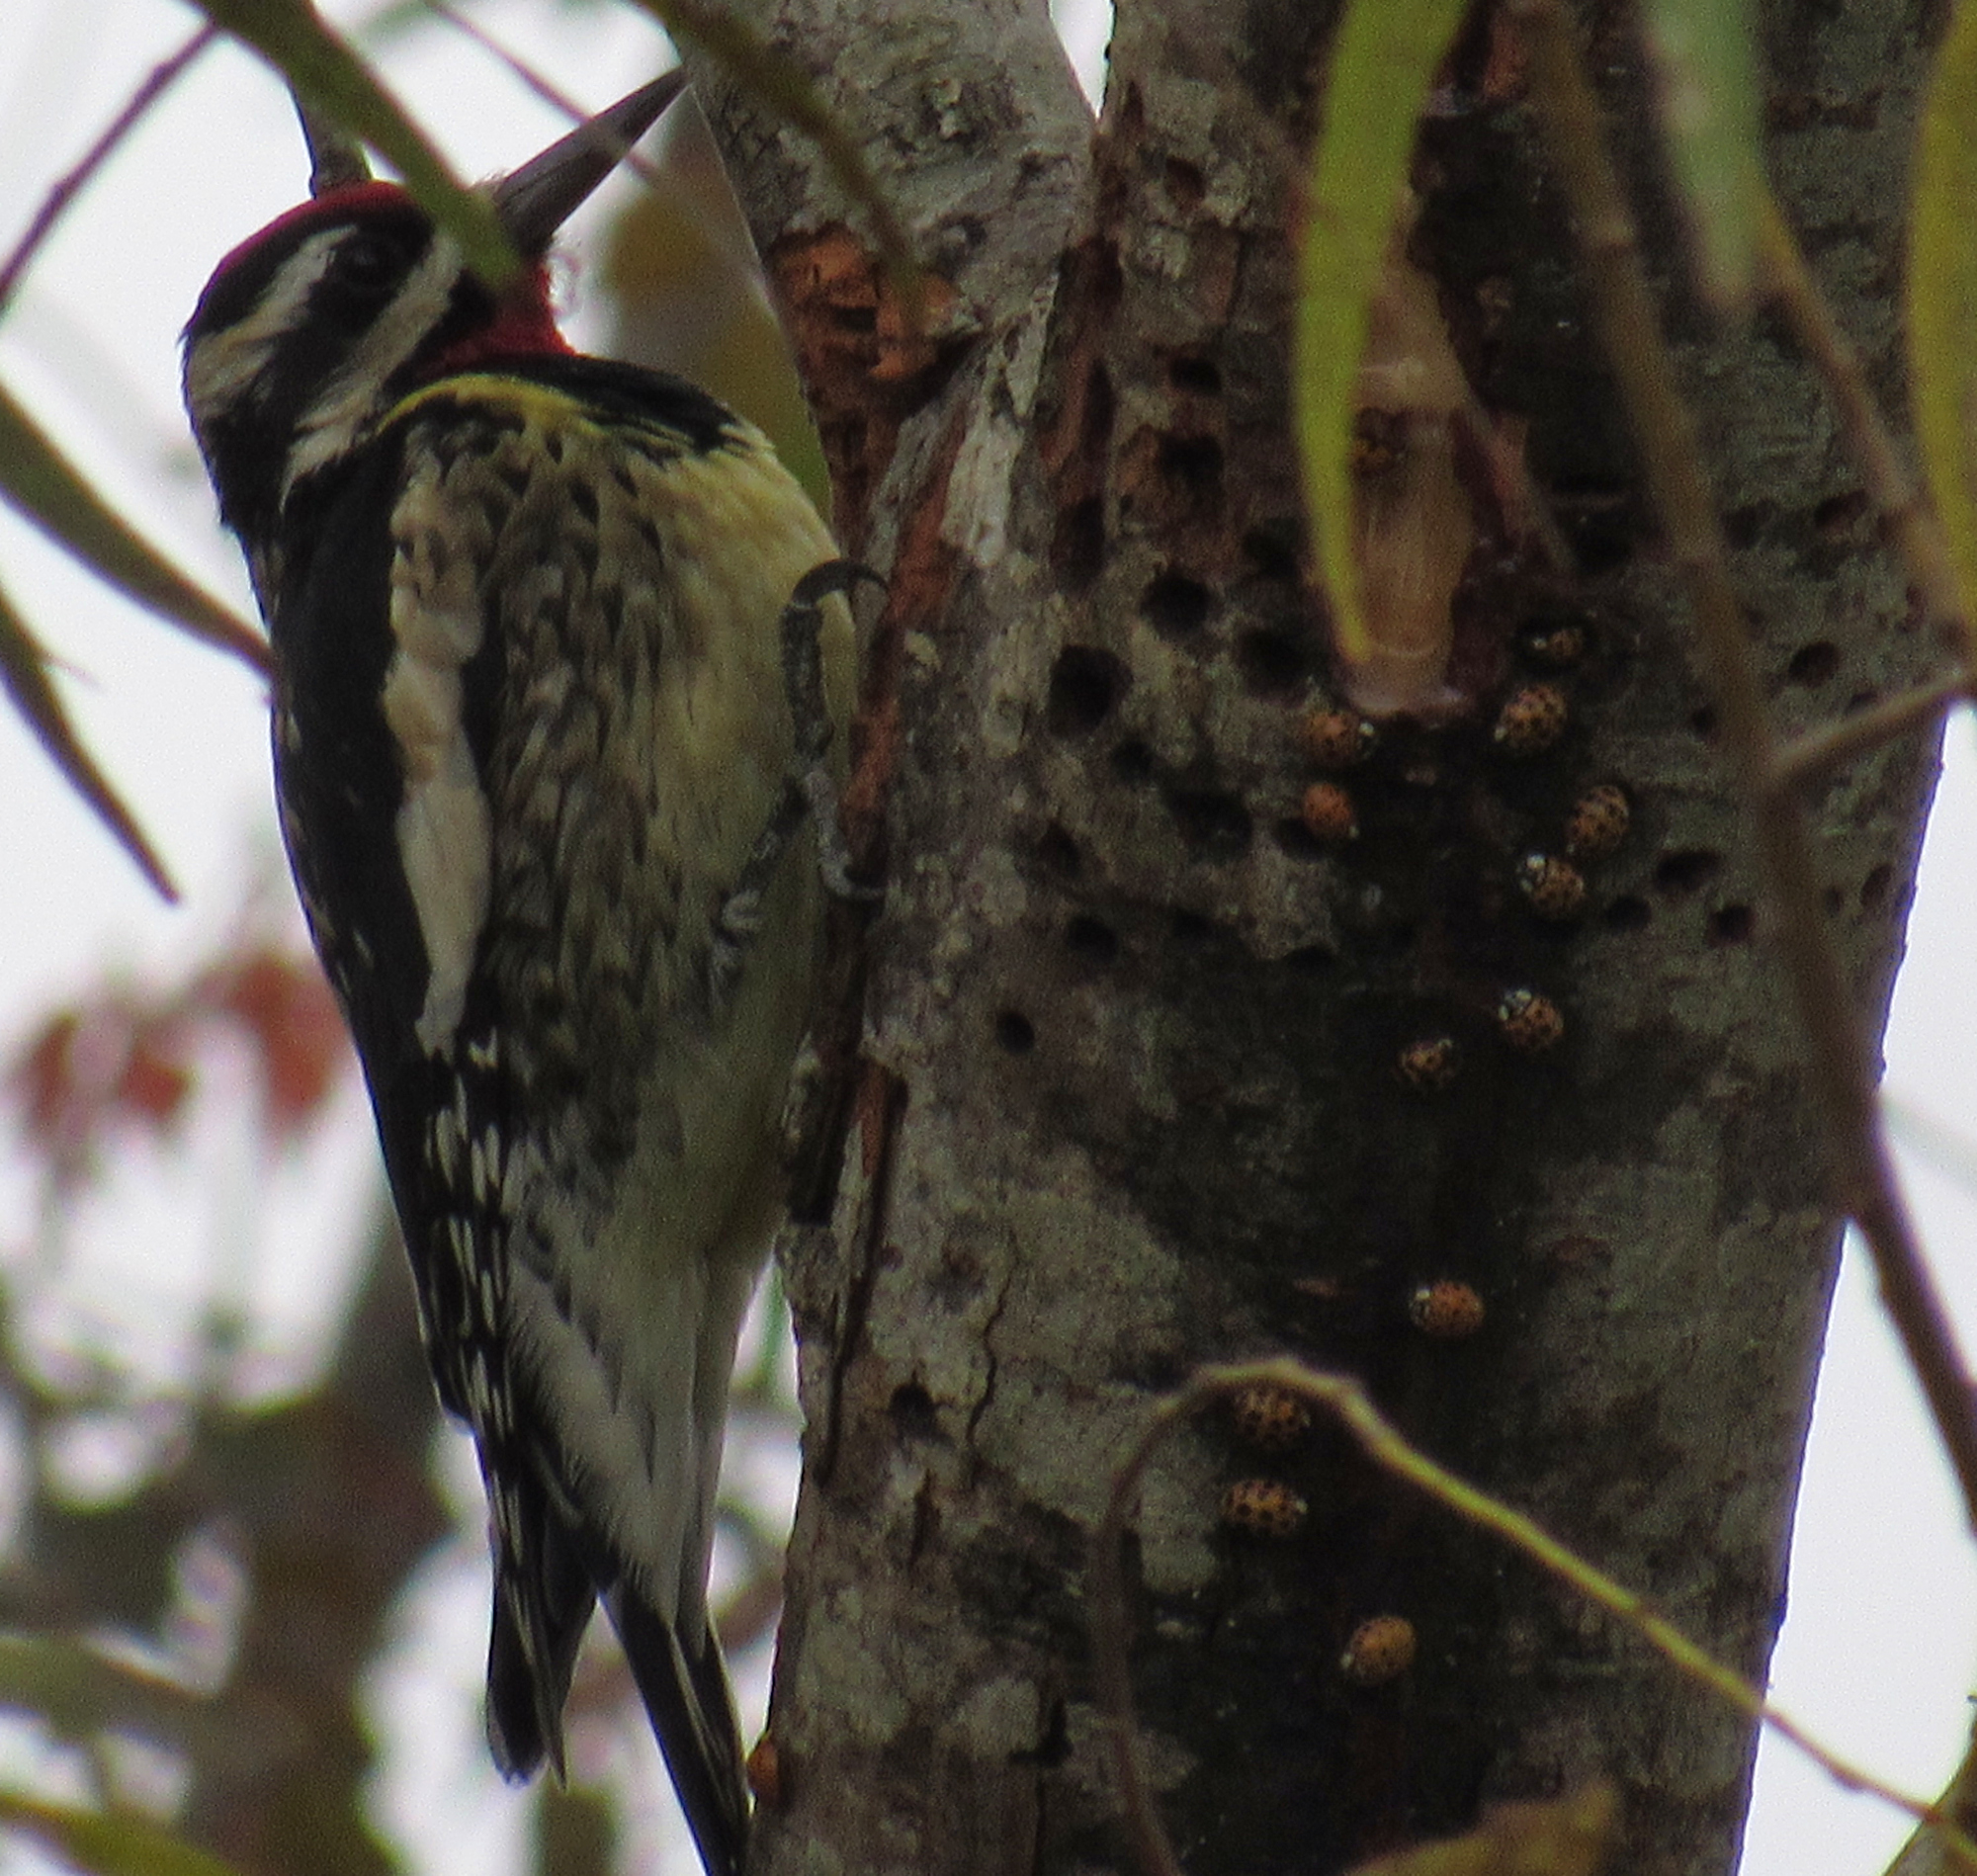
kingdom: Animalia
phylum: Arthropoda
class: Insecta
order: Coleoptera
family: Coccinellidae
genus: Harmonia
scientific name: Harmonia axyridis
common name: Harlequin ladybird
